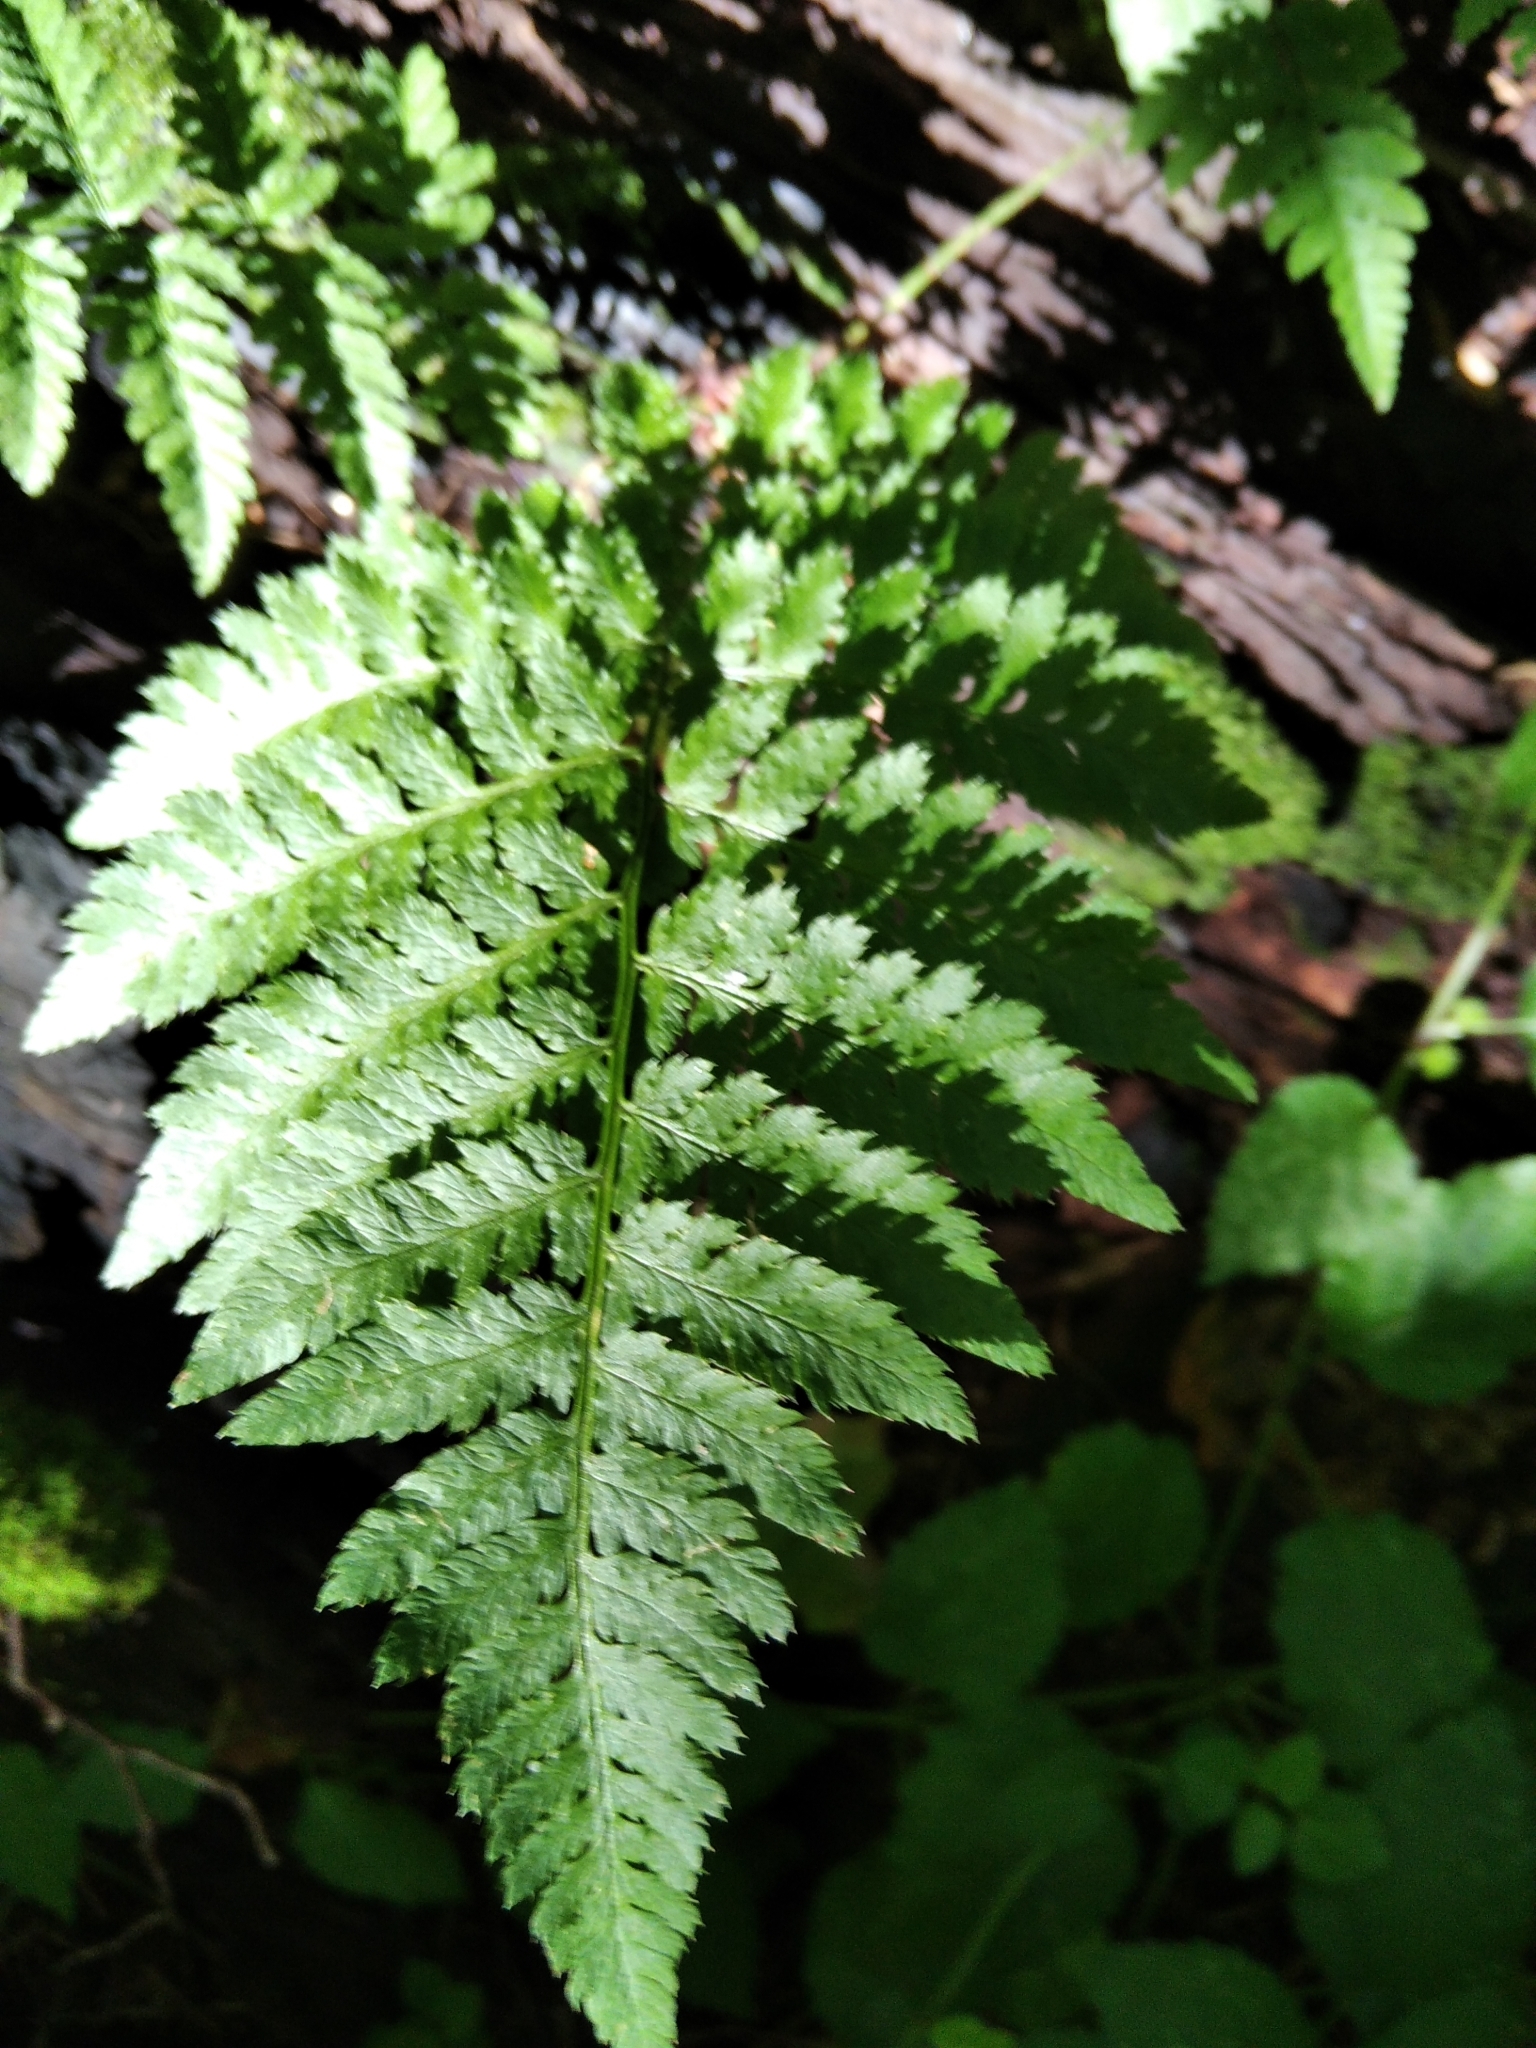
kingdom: Plantae
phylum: Tracheophyta
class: Polypodiopsida
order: Polypodiales
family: Dryopteridaceae
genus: Dryopteris
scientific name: Dryopteris carthusiana
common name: Narrow buckler-fern
